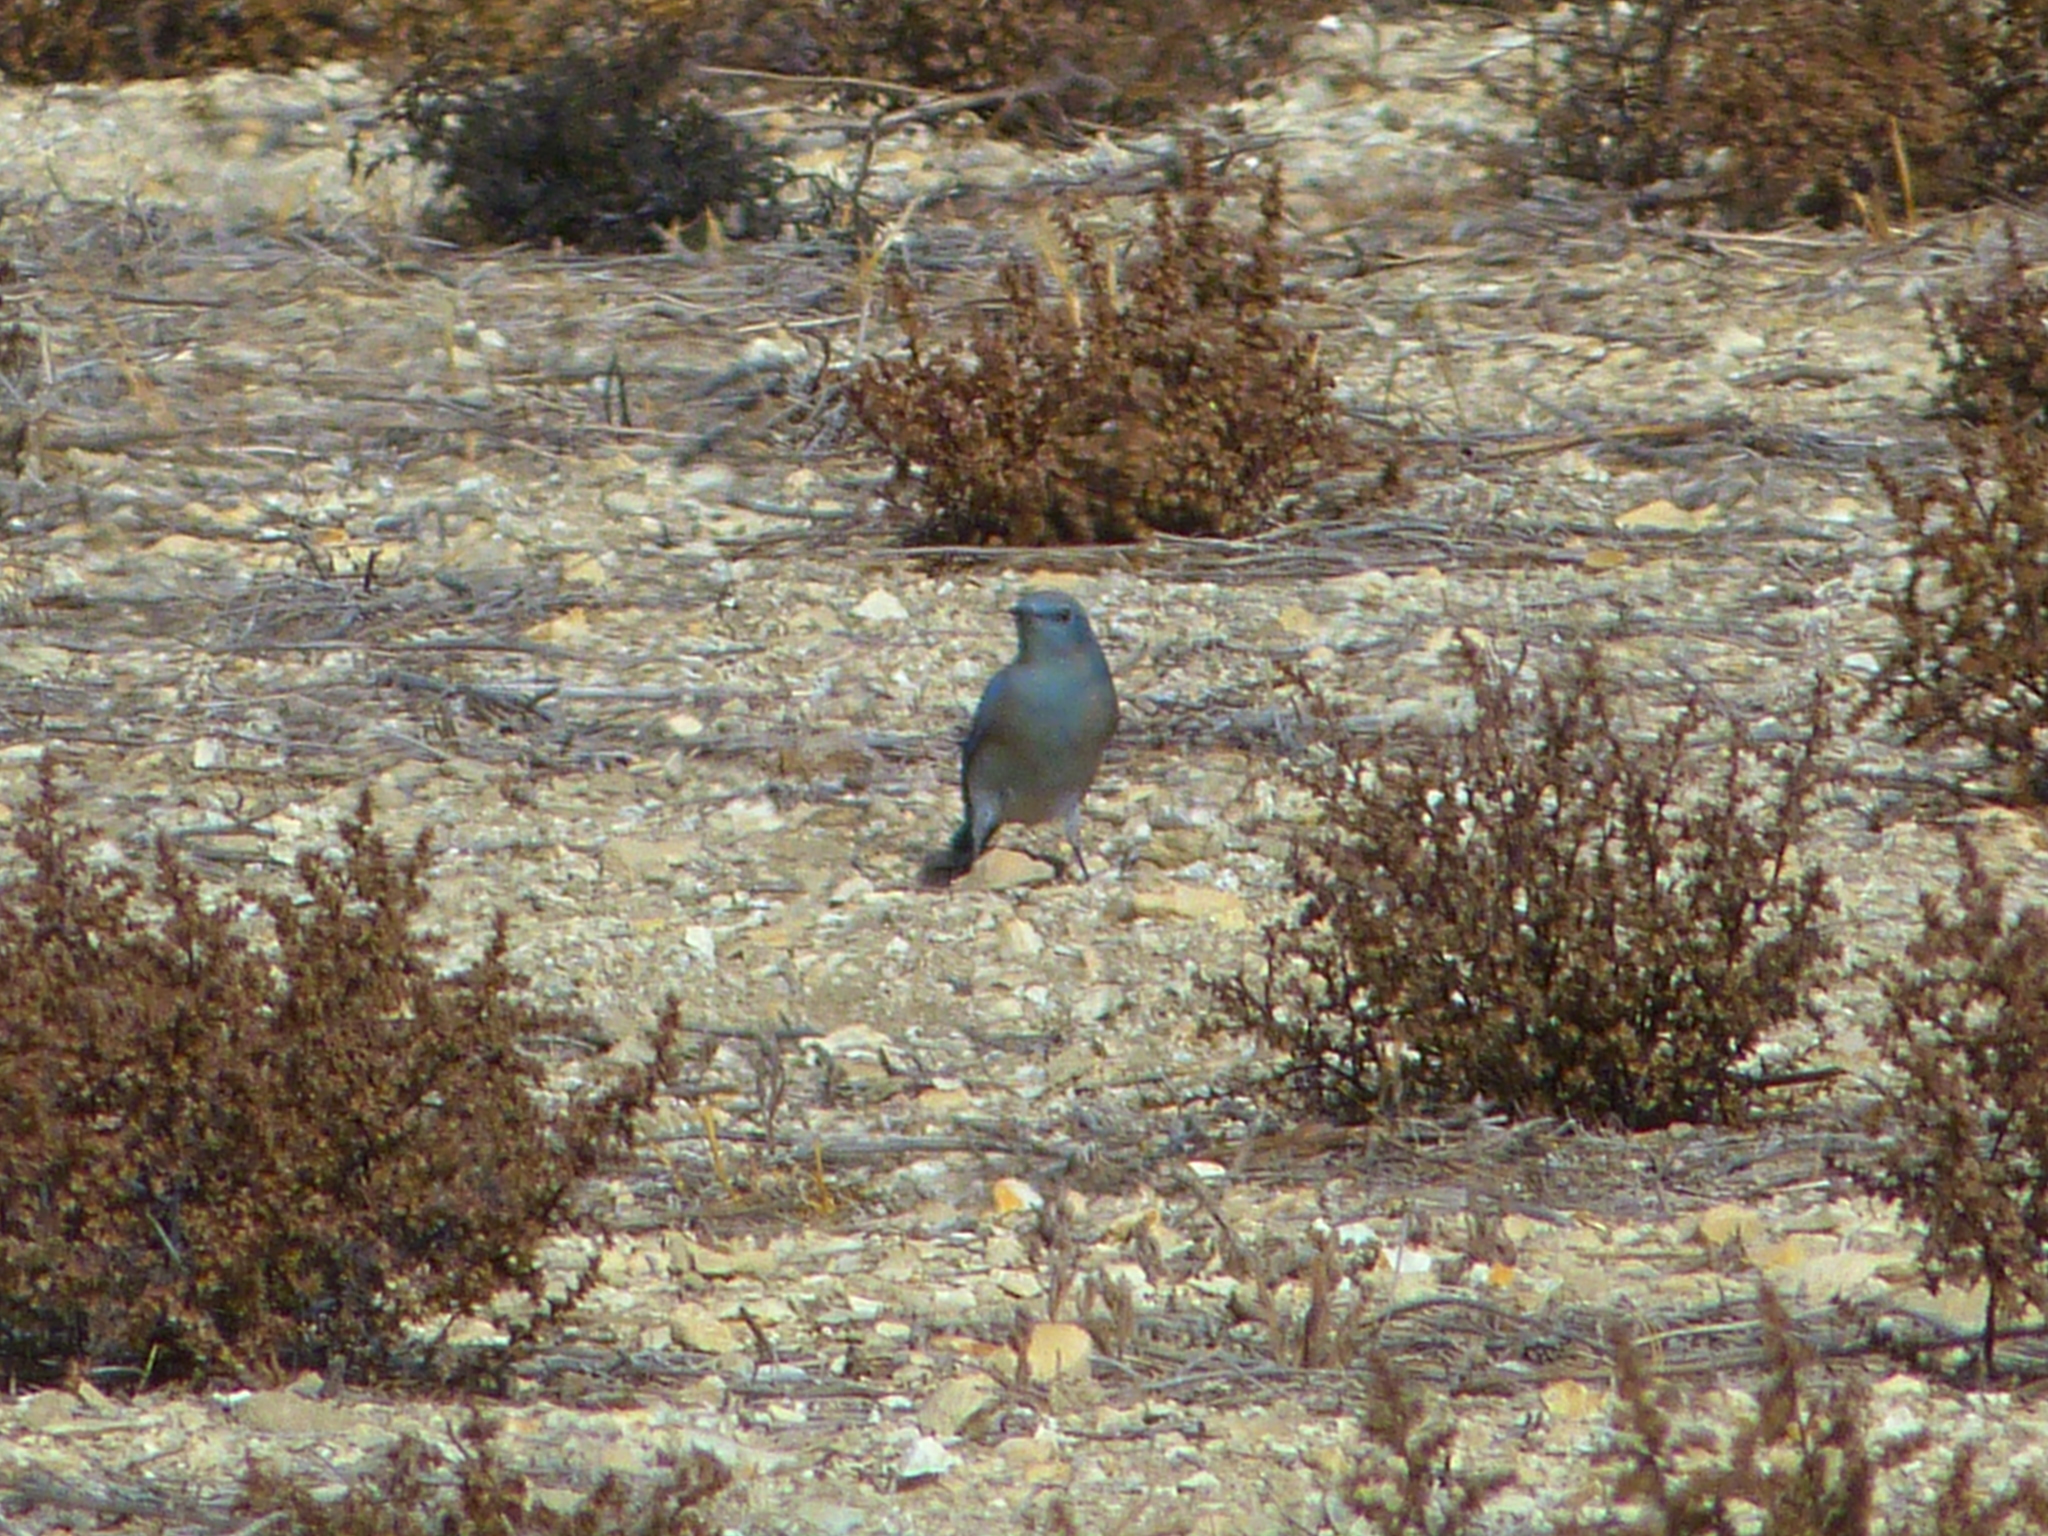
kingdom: Animalia
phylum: Chordata
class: Aves
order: Passeriformes
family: Turdidae
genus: Sialia
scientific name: Sialia currucoides
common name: Mountain bluebird
